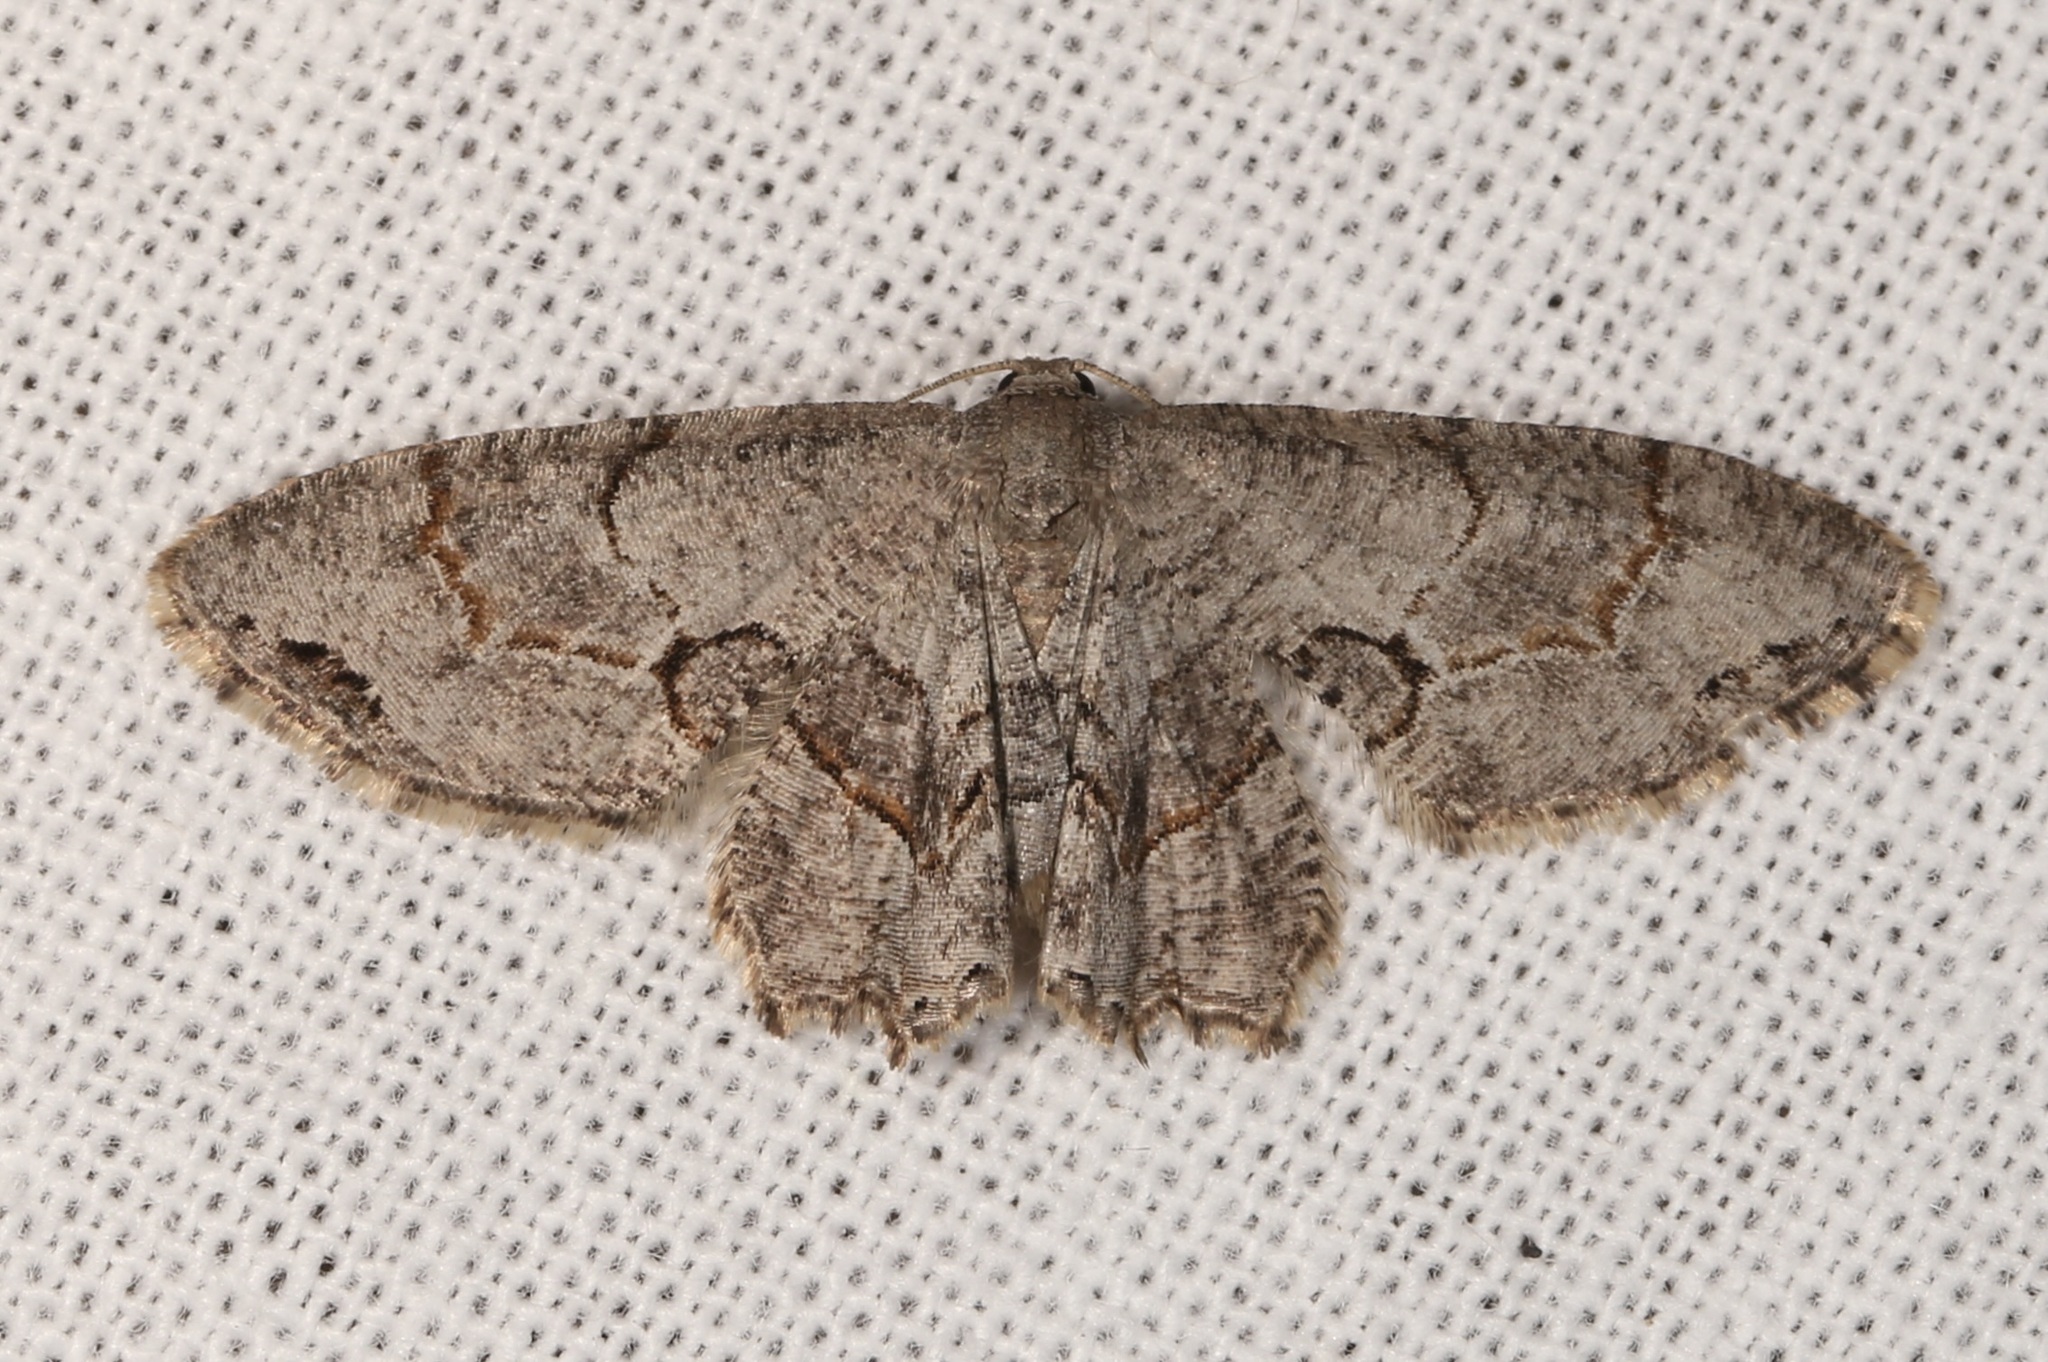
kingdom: Animalia
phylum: Arthropoda
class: Insecta
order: Lepidoptera
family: Uraniidae
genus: Epiplema
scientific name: Epiplema Callizzia amorata
